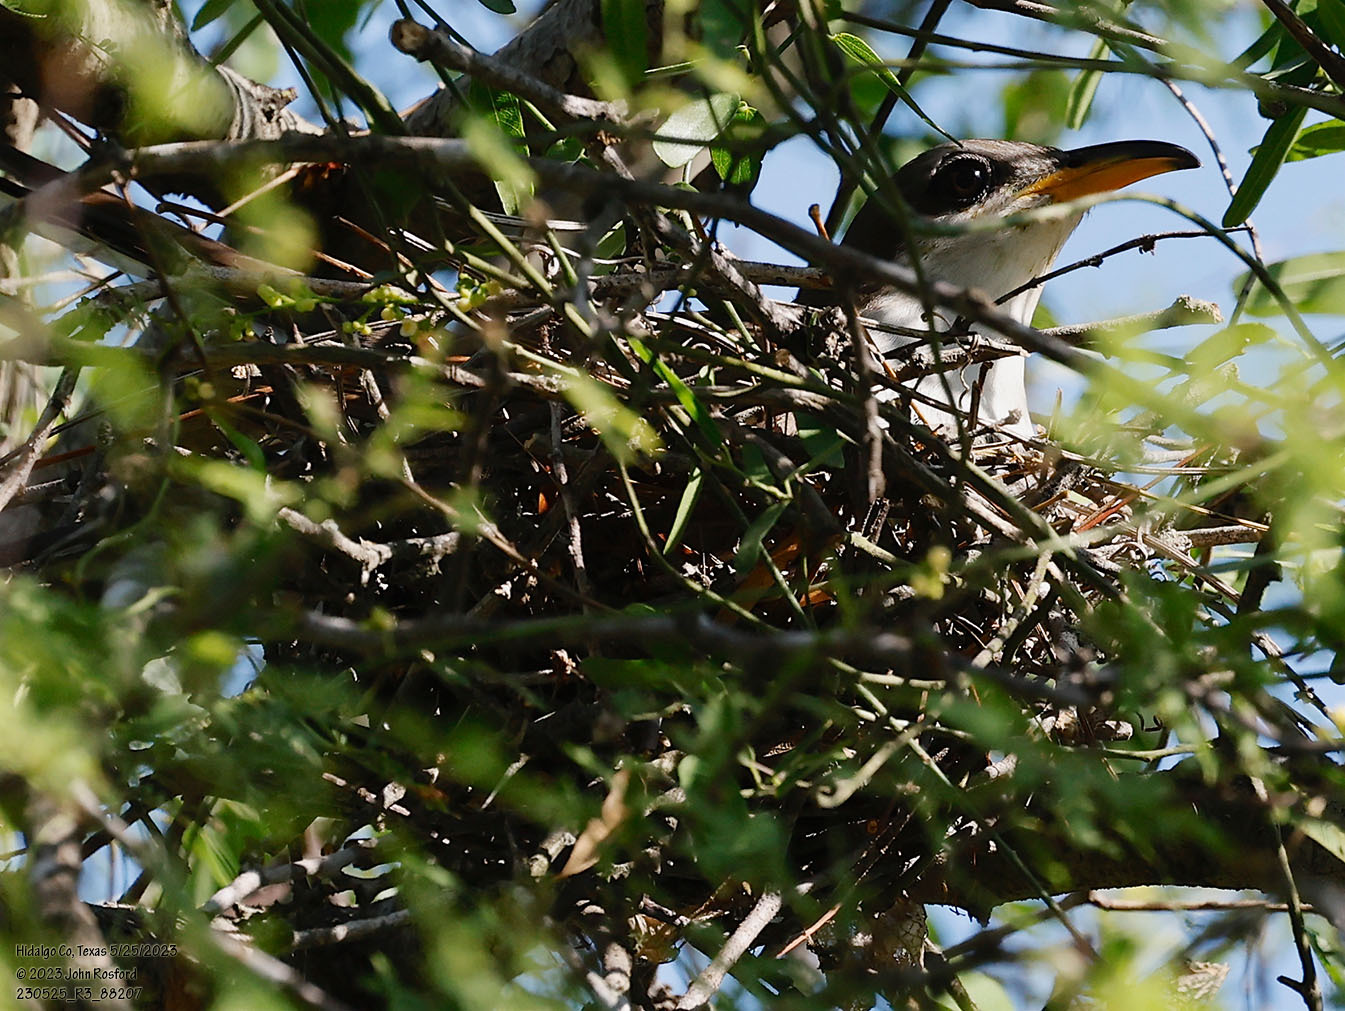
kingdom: Animalia
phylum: Chordata
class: Aves
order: Cuculiformes
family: Cuculidae
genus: Coccyzus
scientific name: Coccyzus americanus
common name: Yellow-billed cuckoo
